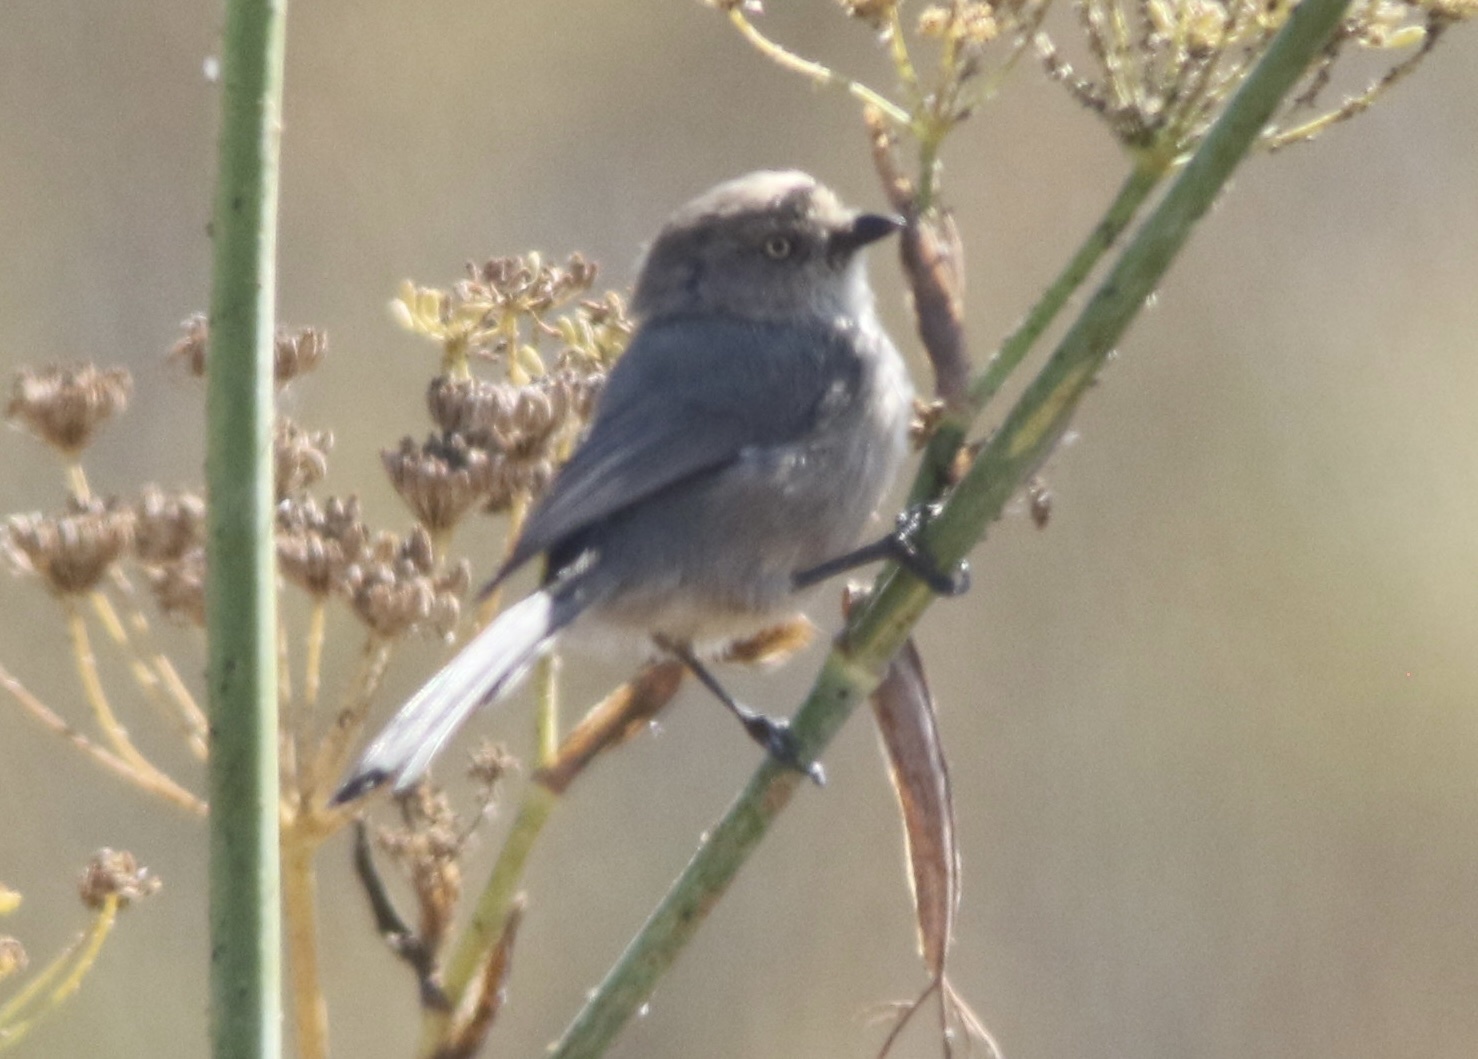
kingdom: Animalia
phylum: Chordata
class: Aves
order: Passeriformes
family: Aegithalidae
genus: Psaltriparus
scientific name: Psaltriparus minimus
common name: American bushtit
